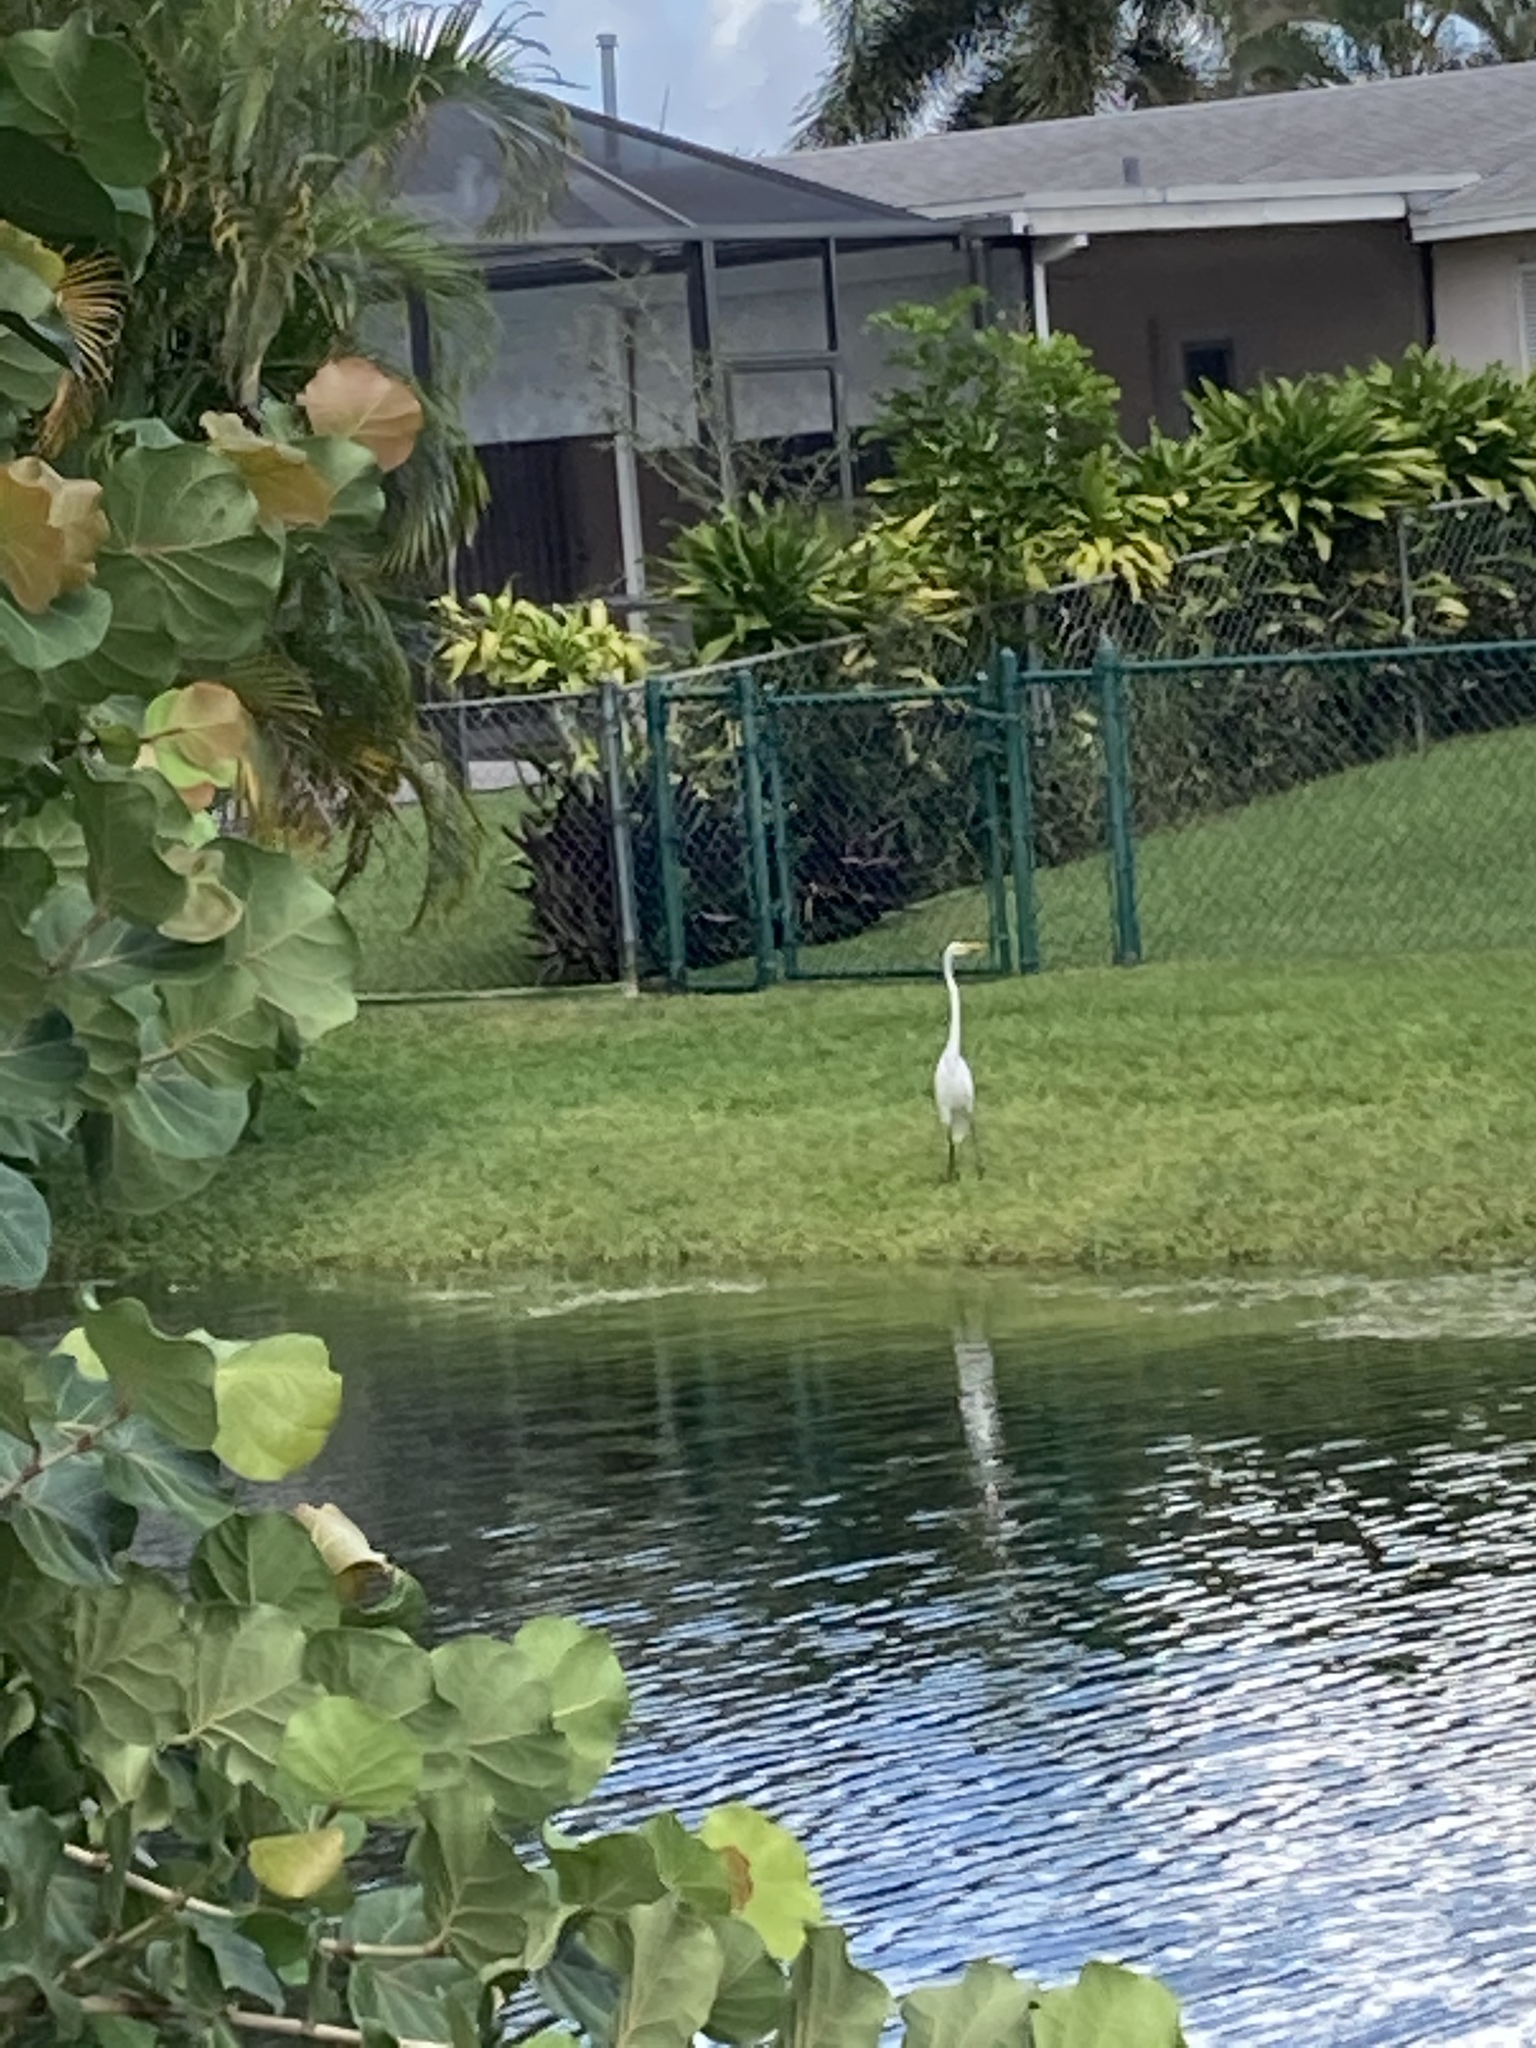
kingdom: Animalia
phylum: Chordata
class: Aves
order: Pelecaniformes
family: Ardeidae
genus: Ardea
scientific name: Ardea alba
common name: Great egret
